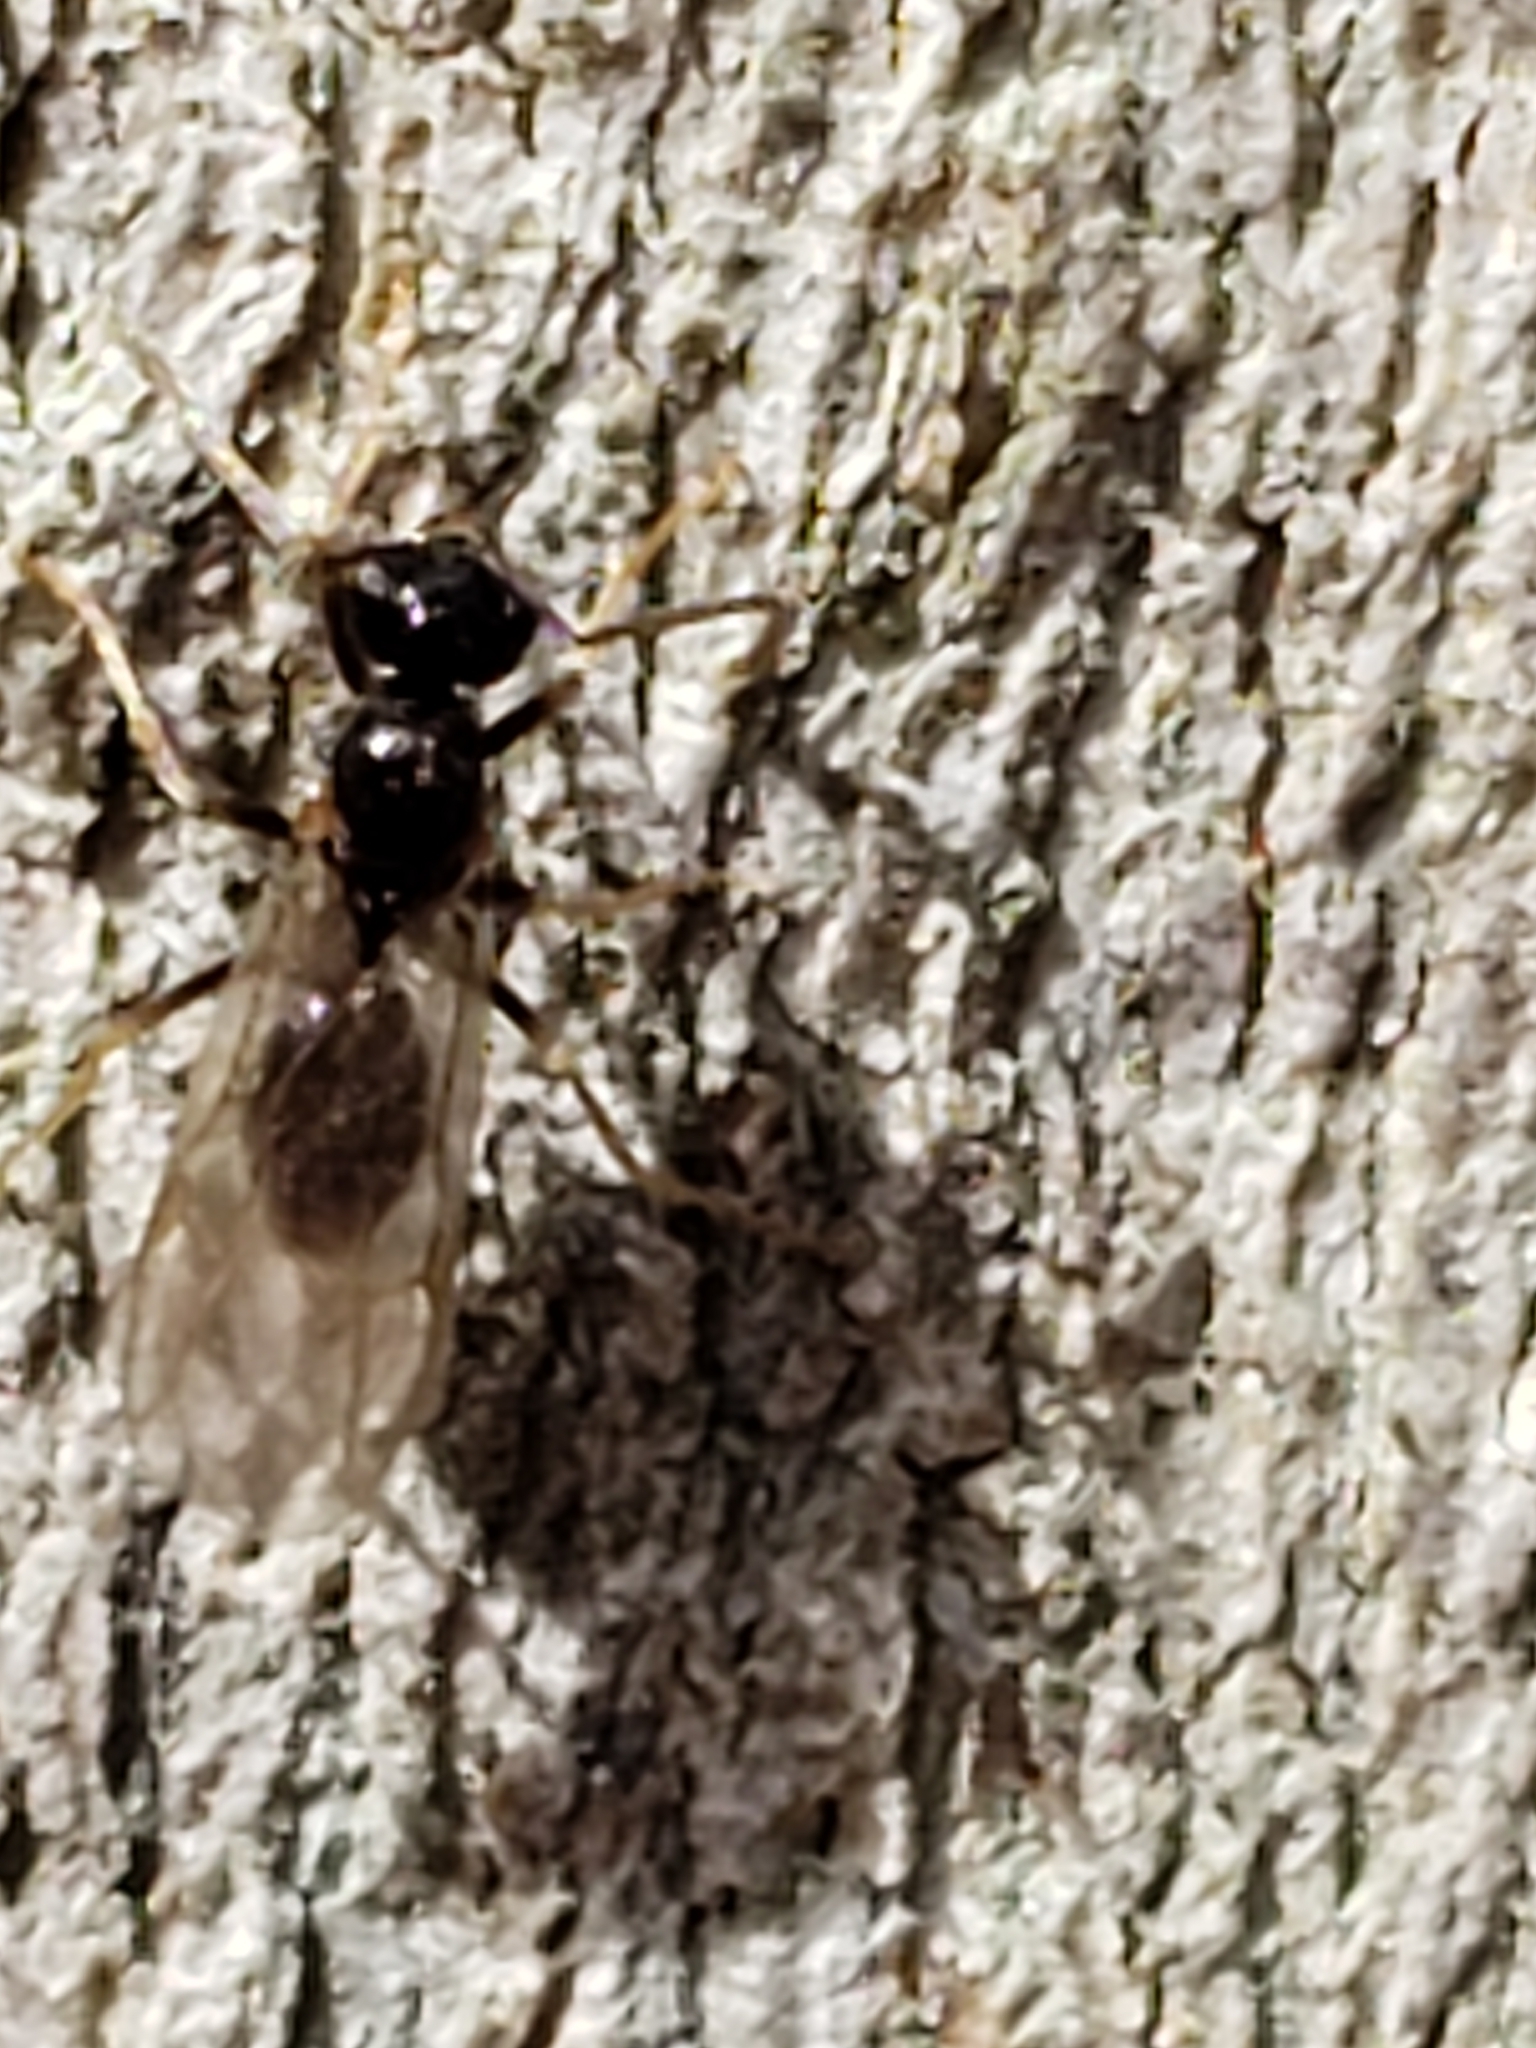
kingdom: Animalia
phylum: Arthropoda
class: Insecta
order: Hymenoptera
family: Formicidae
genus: Prenolepis
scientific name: Prenolepis imparis
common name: Small honey ant
